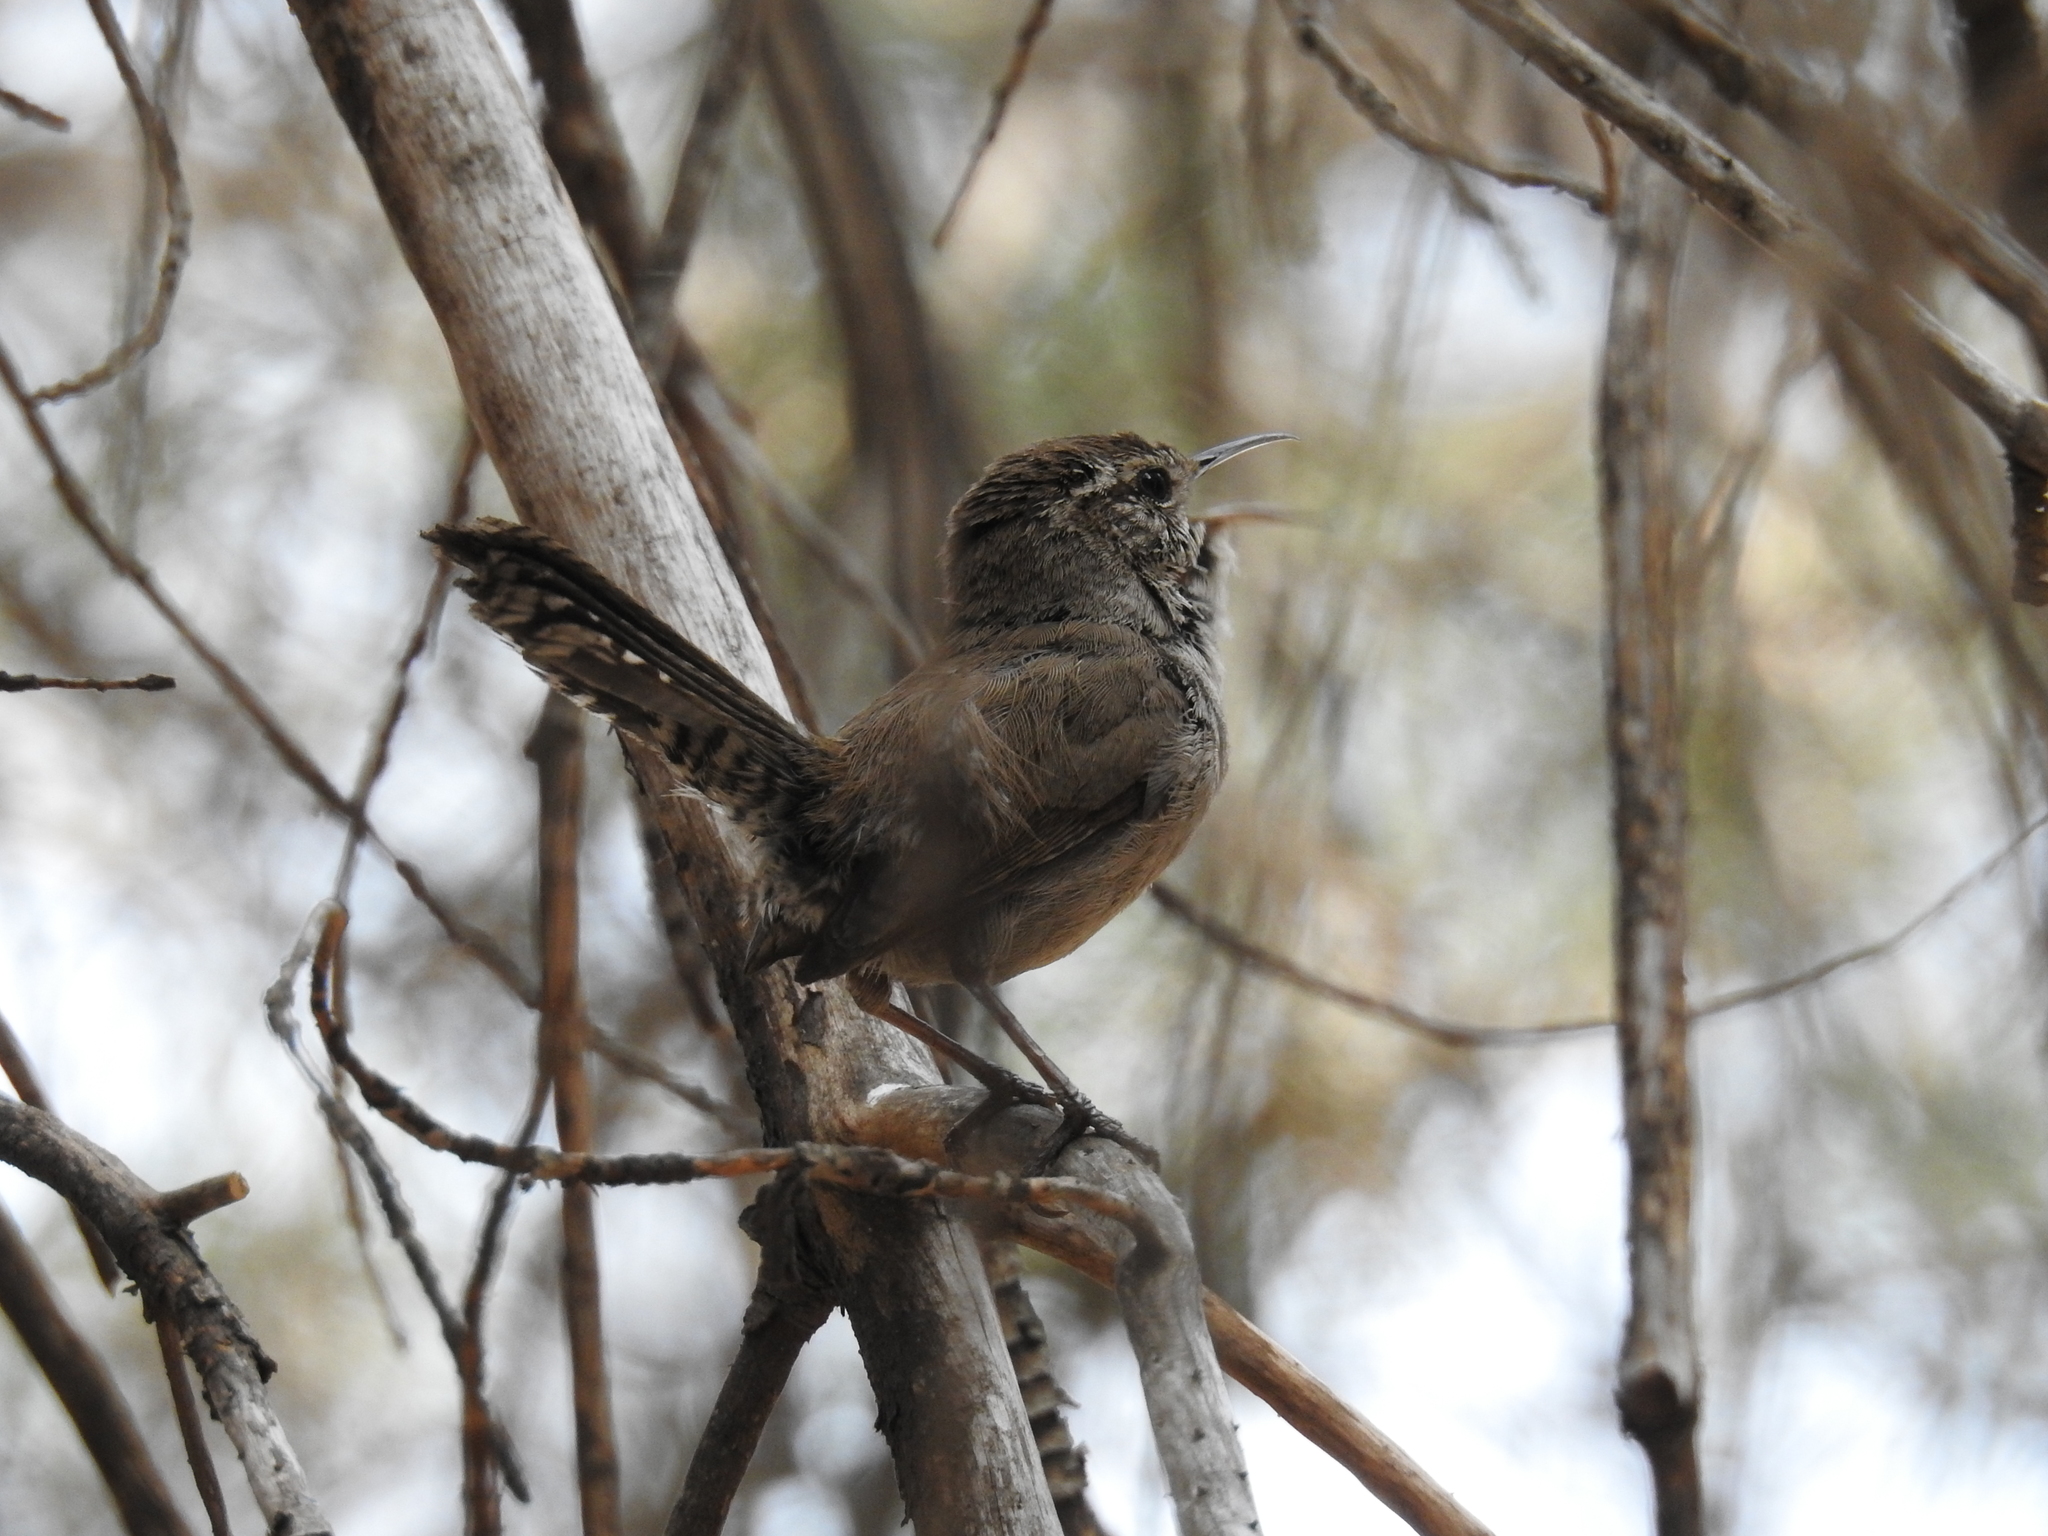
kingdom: Animalia
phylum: Chordata
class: Aves
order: Passeriformes
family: Troglodytidae
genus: Thryomanes
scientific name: Thryomanes bewickii
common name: Bewick's wren
